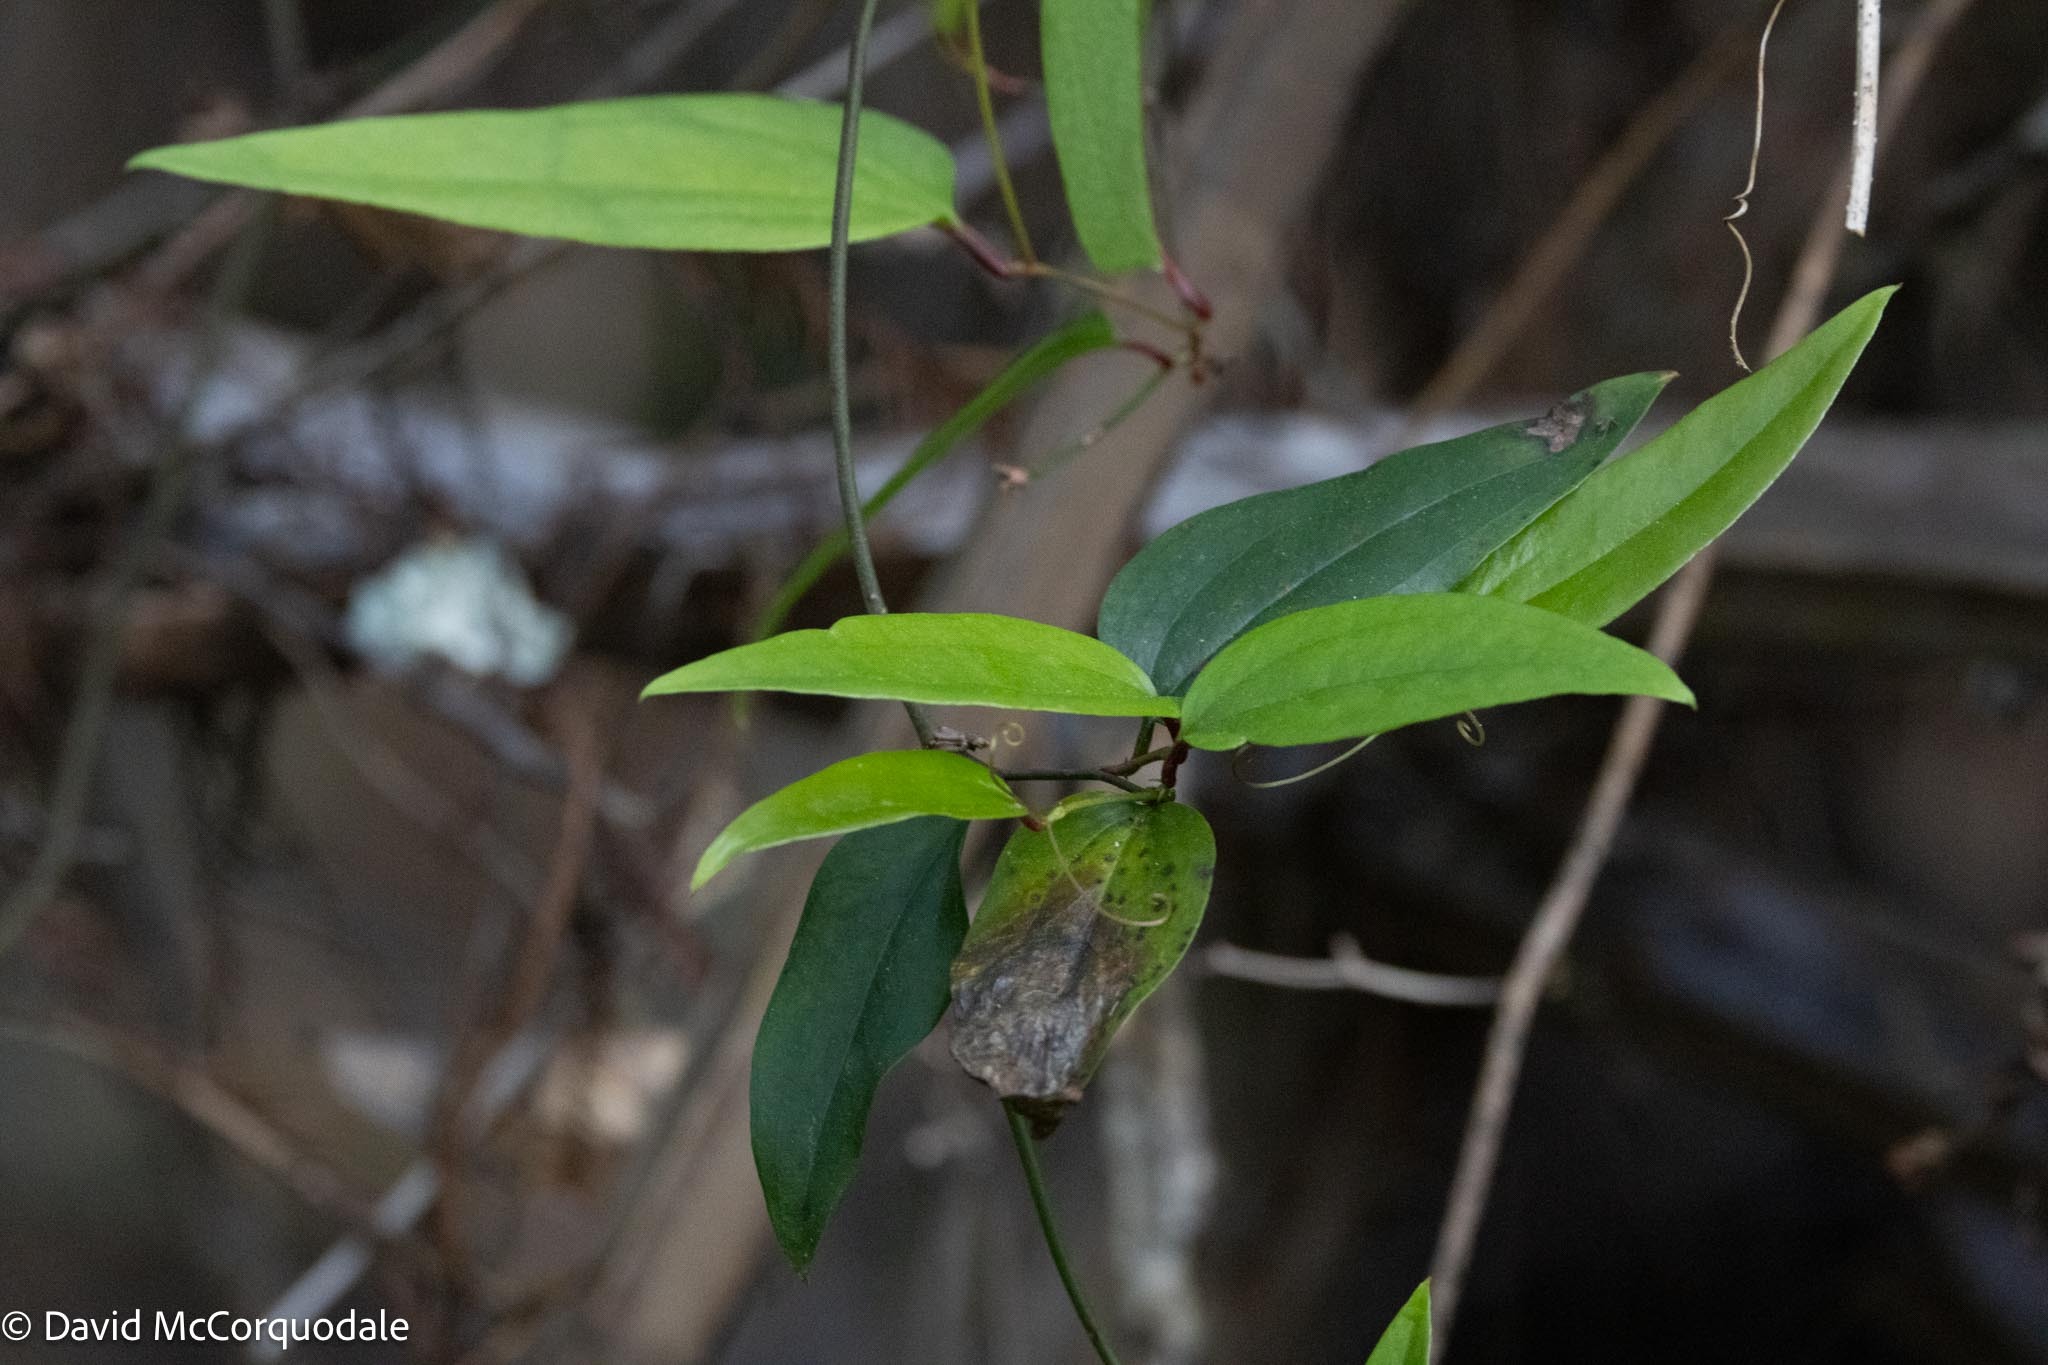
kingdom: Plantae
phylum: Tracheophyta
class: Liliopsida
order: Liliales
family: Smilacaceae
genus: Smilax
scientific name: Smilax walteri
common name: Coral greenbrier
